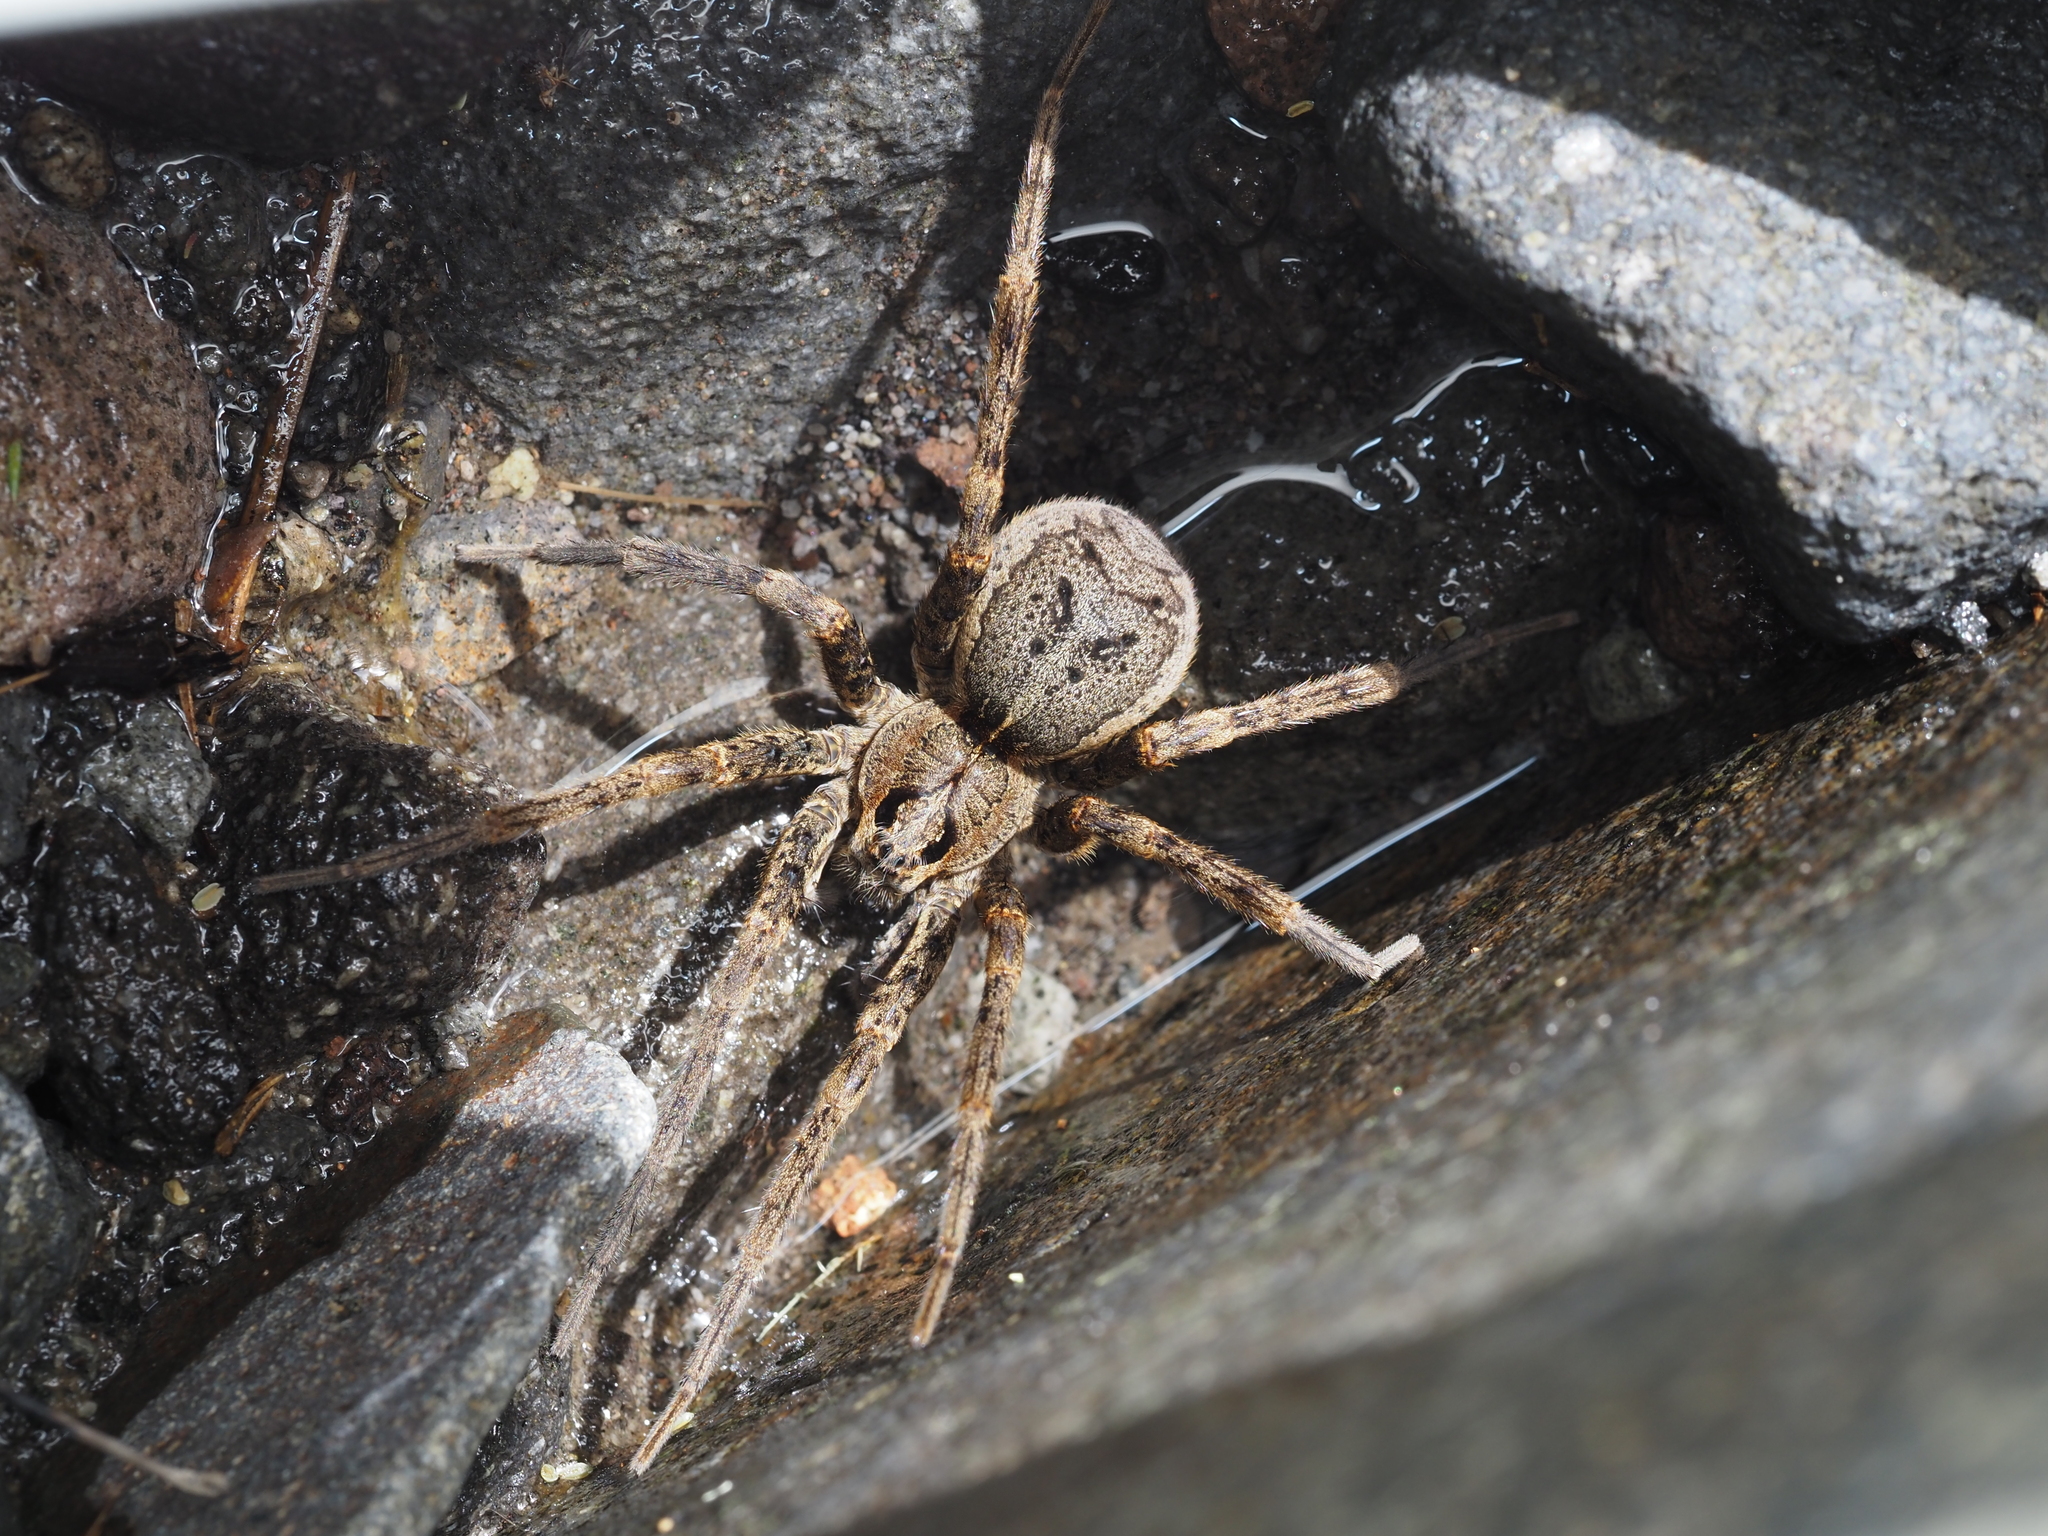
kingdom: Animalia
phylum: Arthropoda
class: Arachnida
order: Araneae
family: Pisauridae
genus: Dolomedes
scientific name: Dolomedes dondalei
